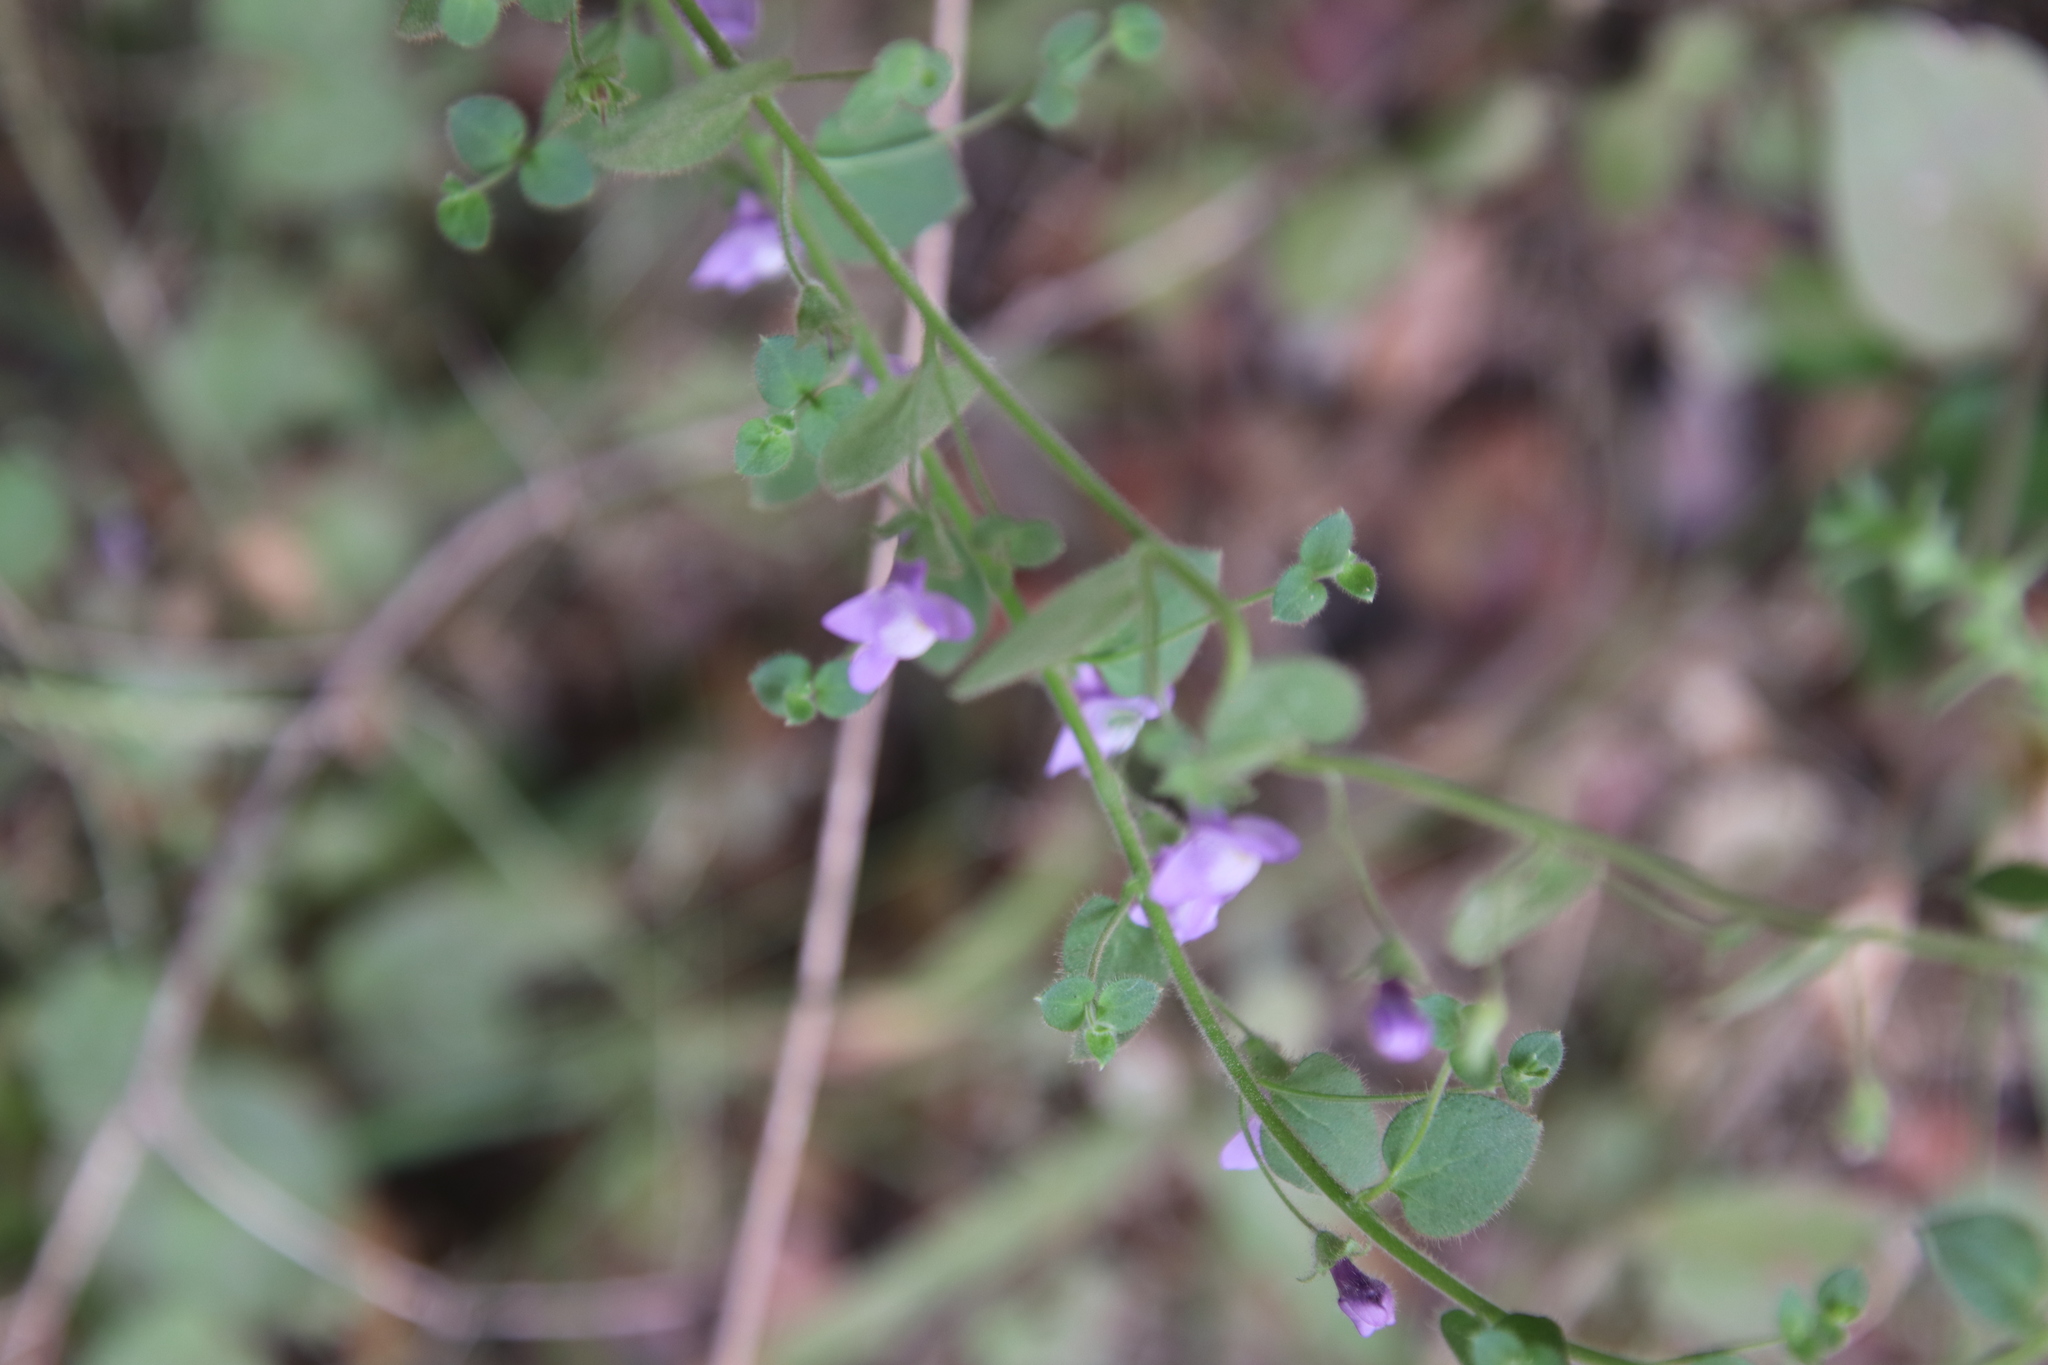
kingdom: Plantae
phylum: Tracheophyta
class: Magnoliopsida
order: Lamiales
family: Plantaginaceae
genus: Sairocarpus
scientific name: Sairocarpus nuttallianus
